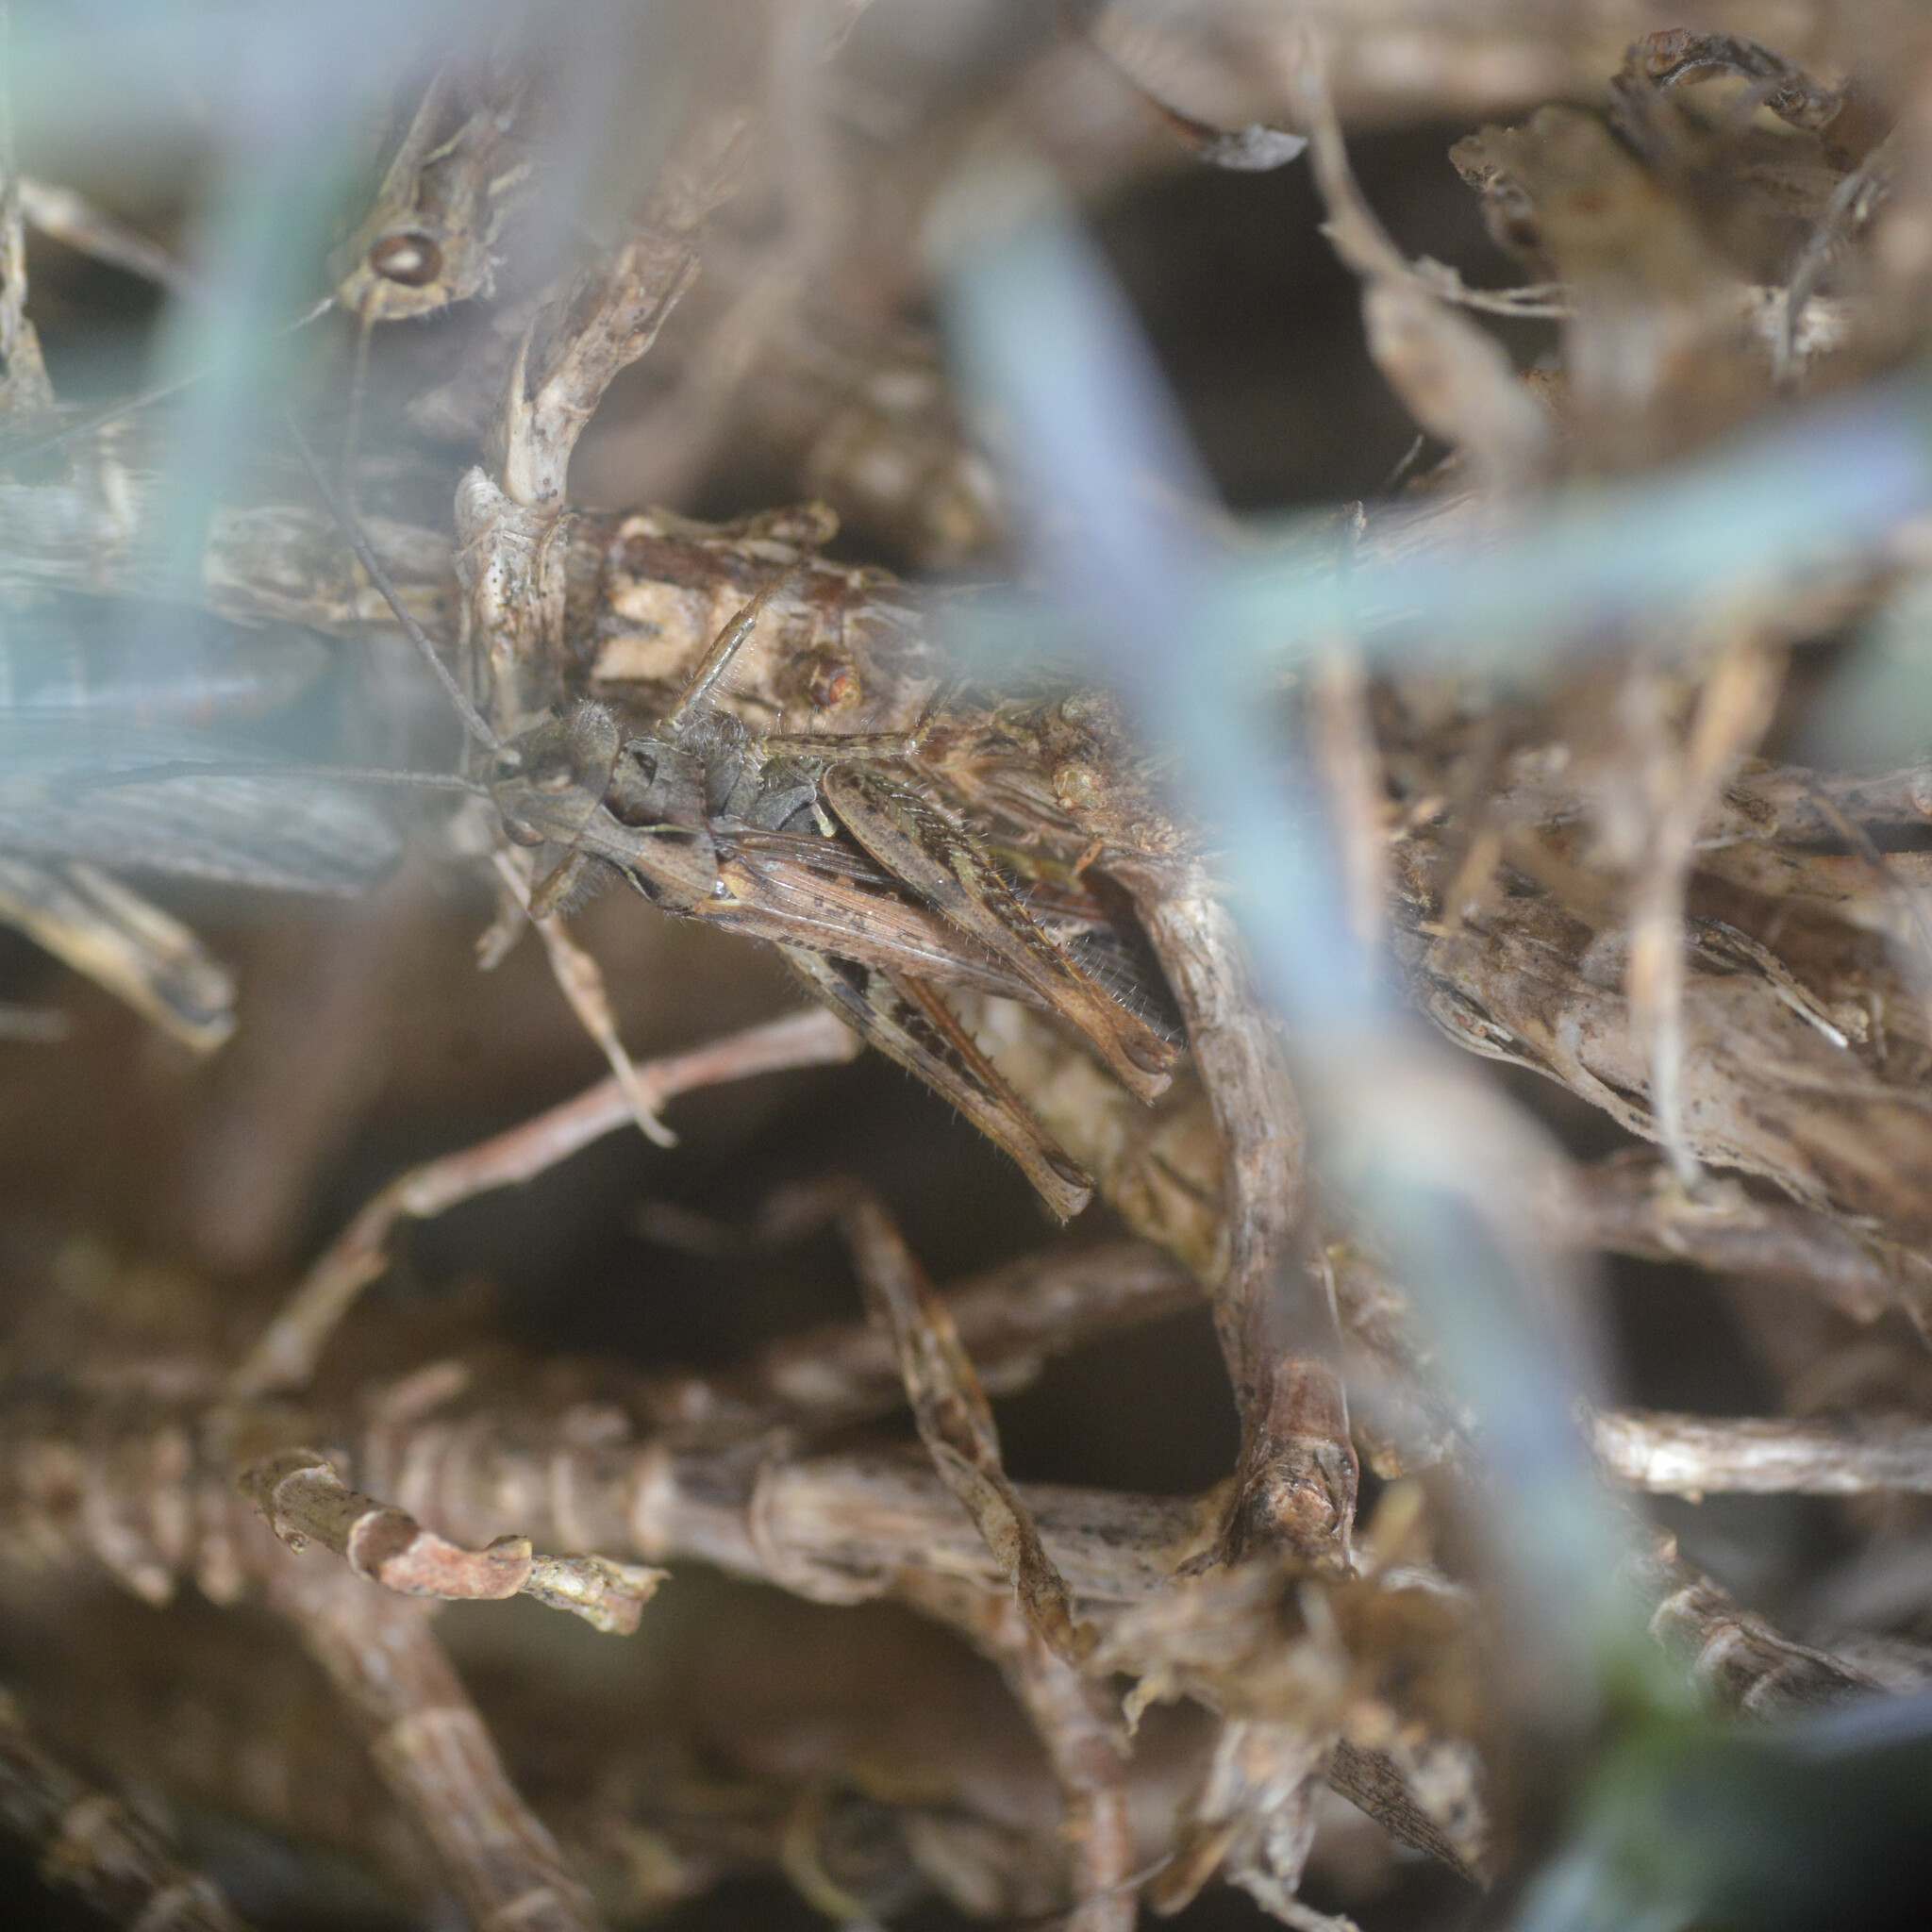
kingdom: Animalia
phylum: Arthropoda
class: Insecta
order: Orthoptera
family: Acrididae
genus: Chorthippus
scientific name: Chorthippus brunneus
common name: Field grasshopper
